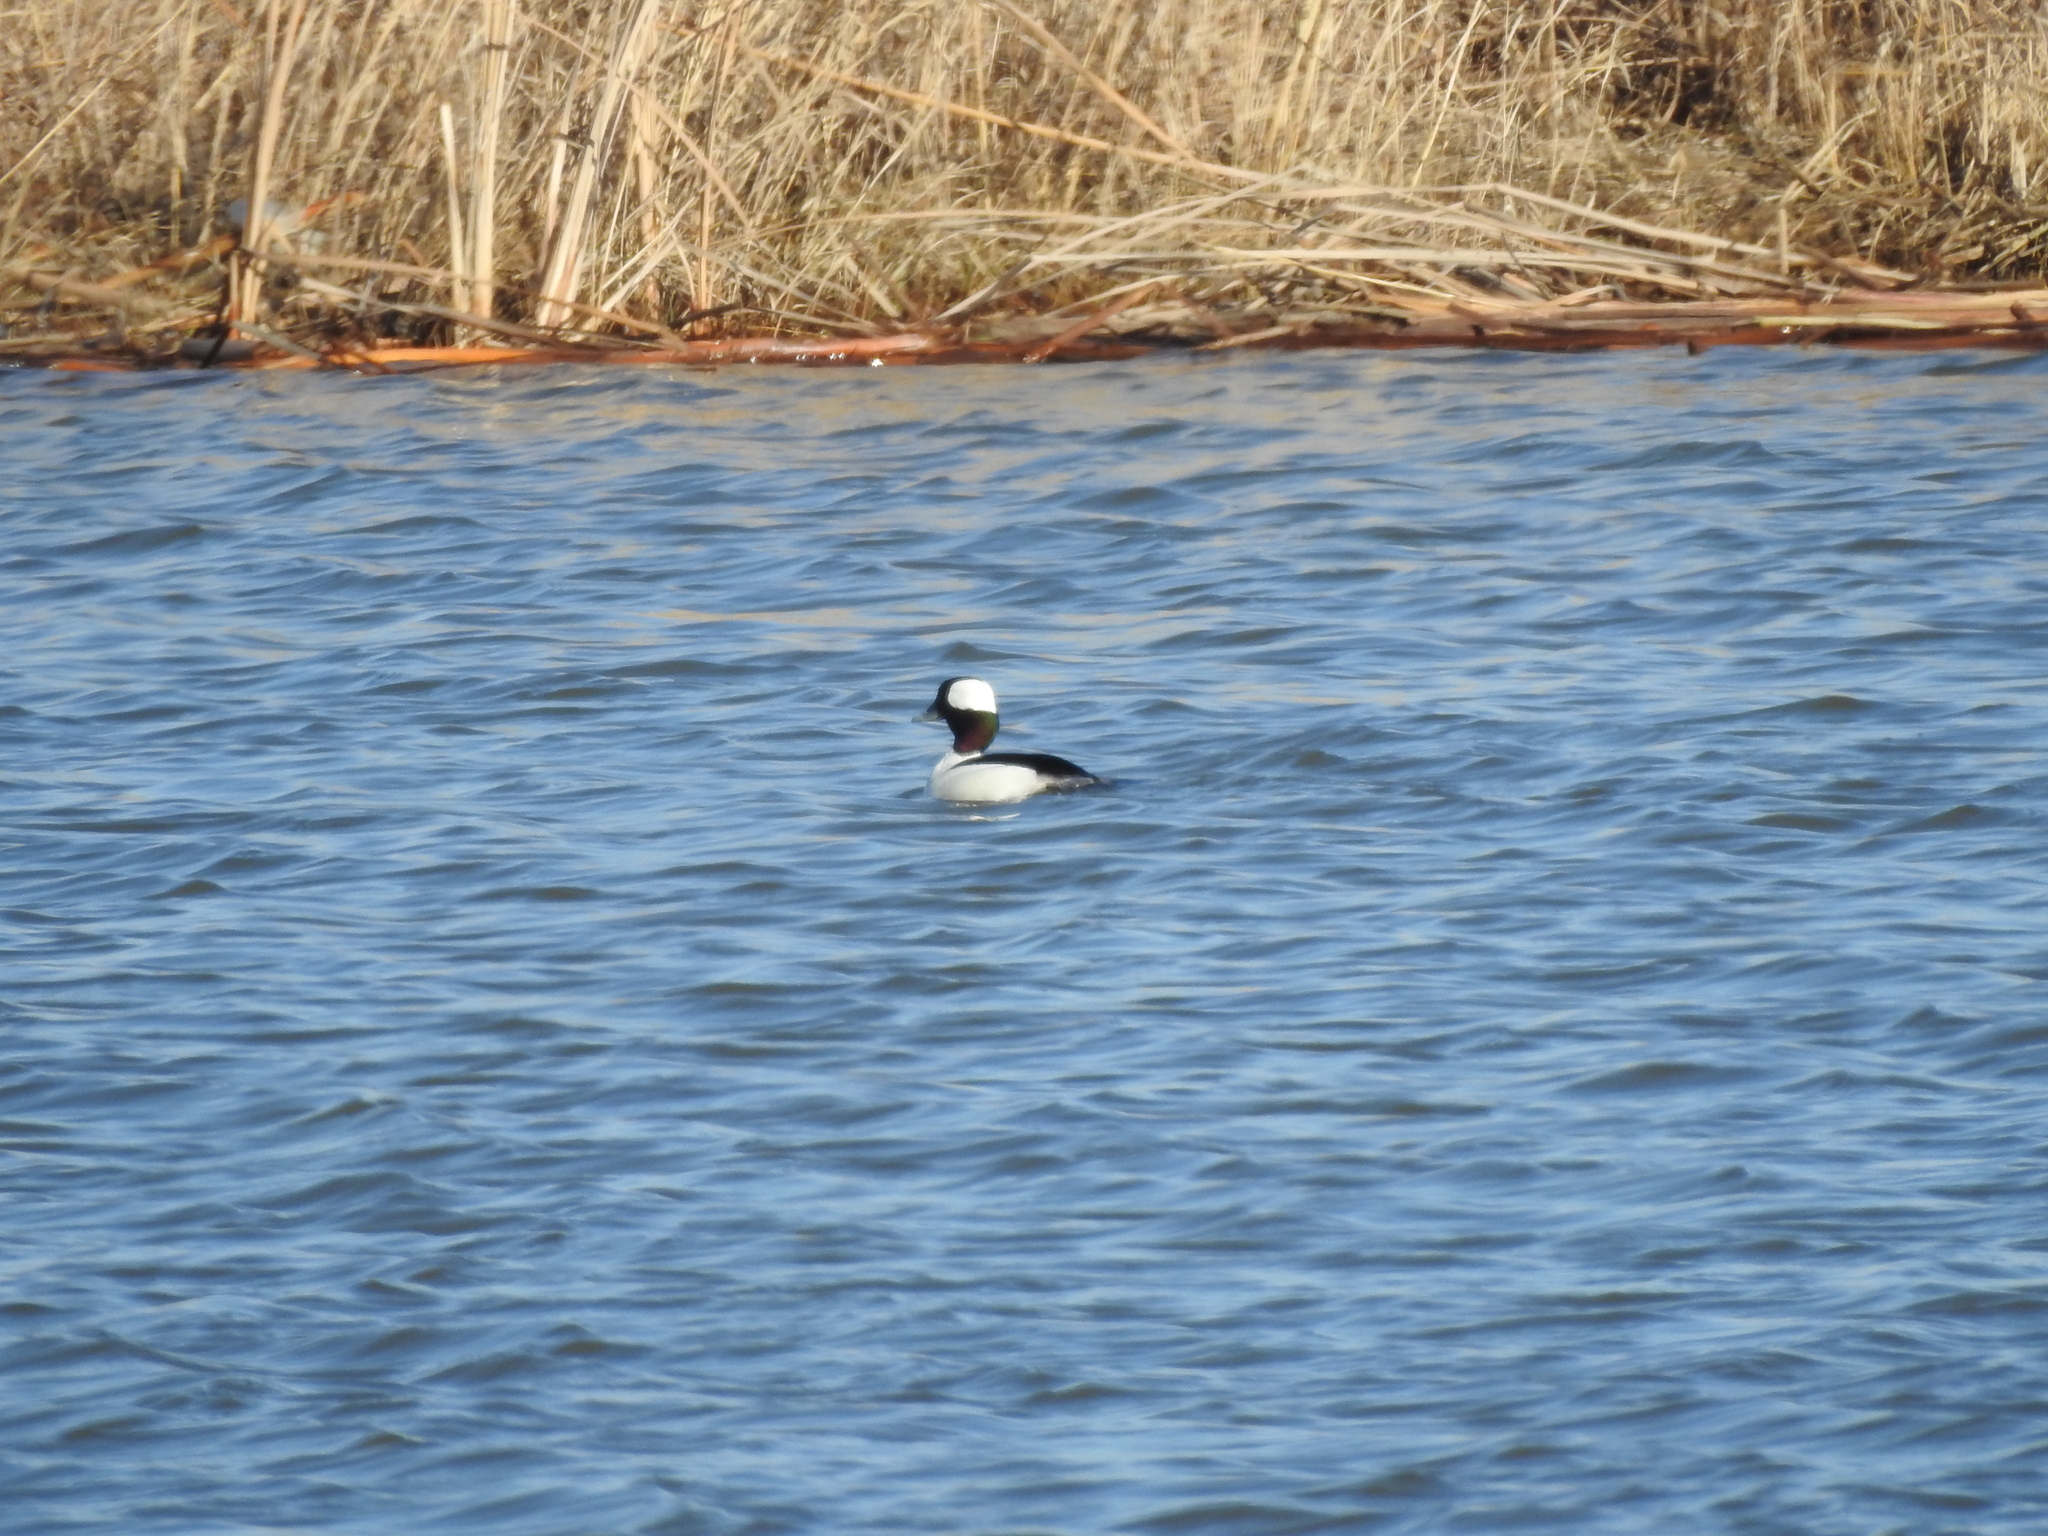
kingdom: Animalia
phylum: Chordata
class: Aves
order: Anseriformes
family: Anatidae
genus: Bucephala
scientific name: Bucephala albeola
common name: Bufflehead
